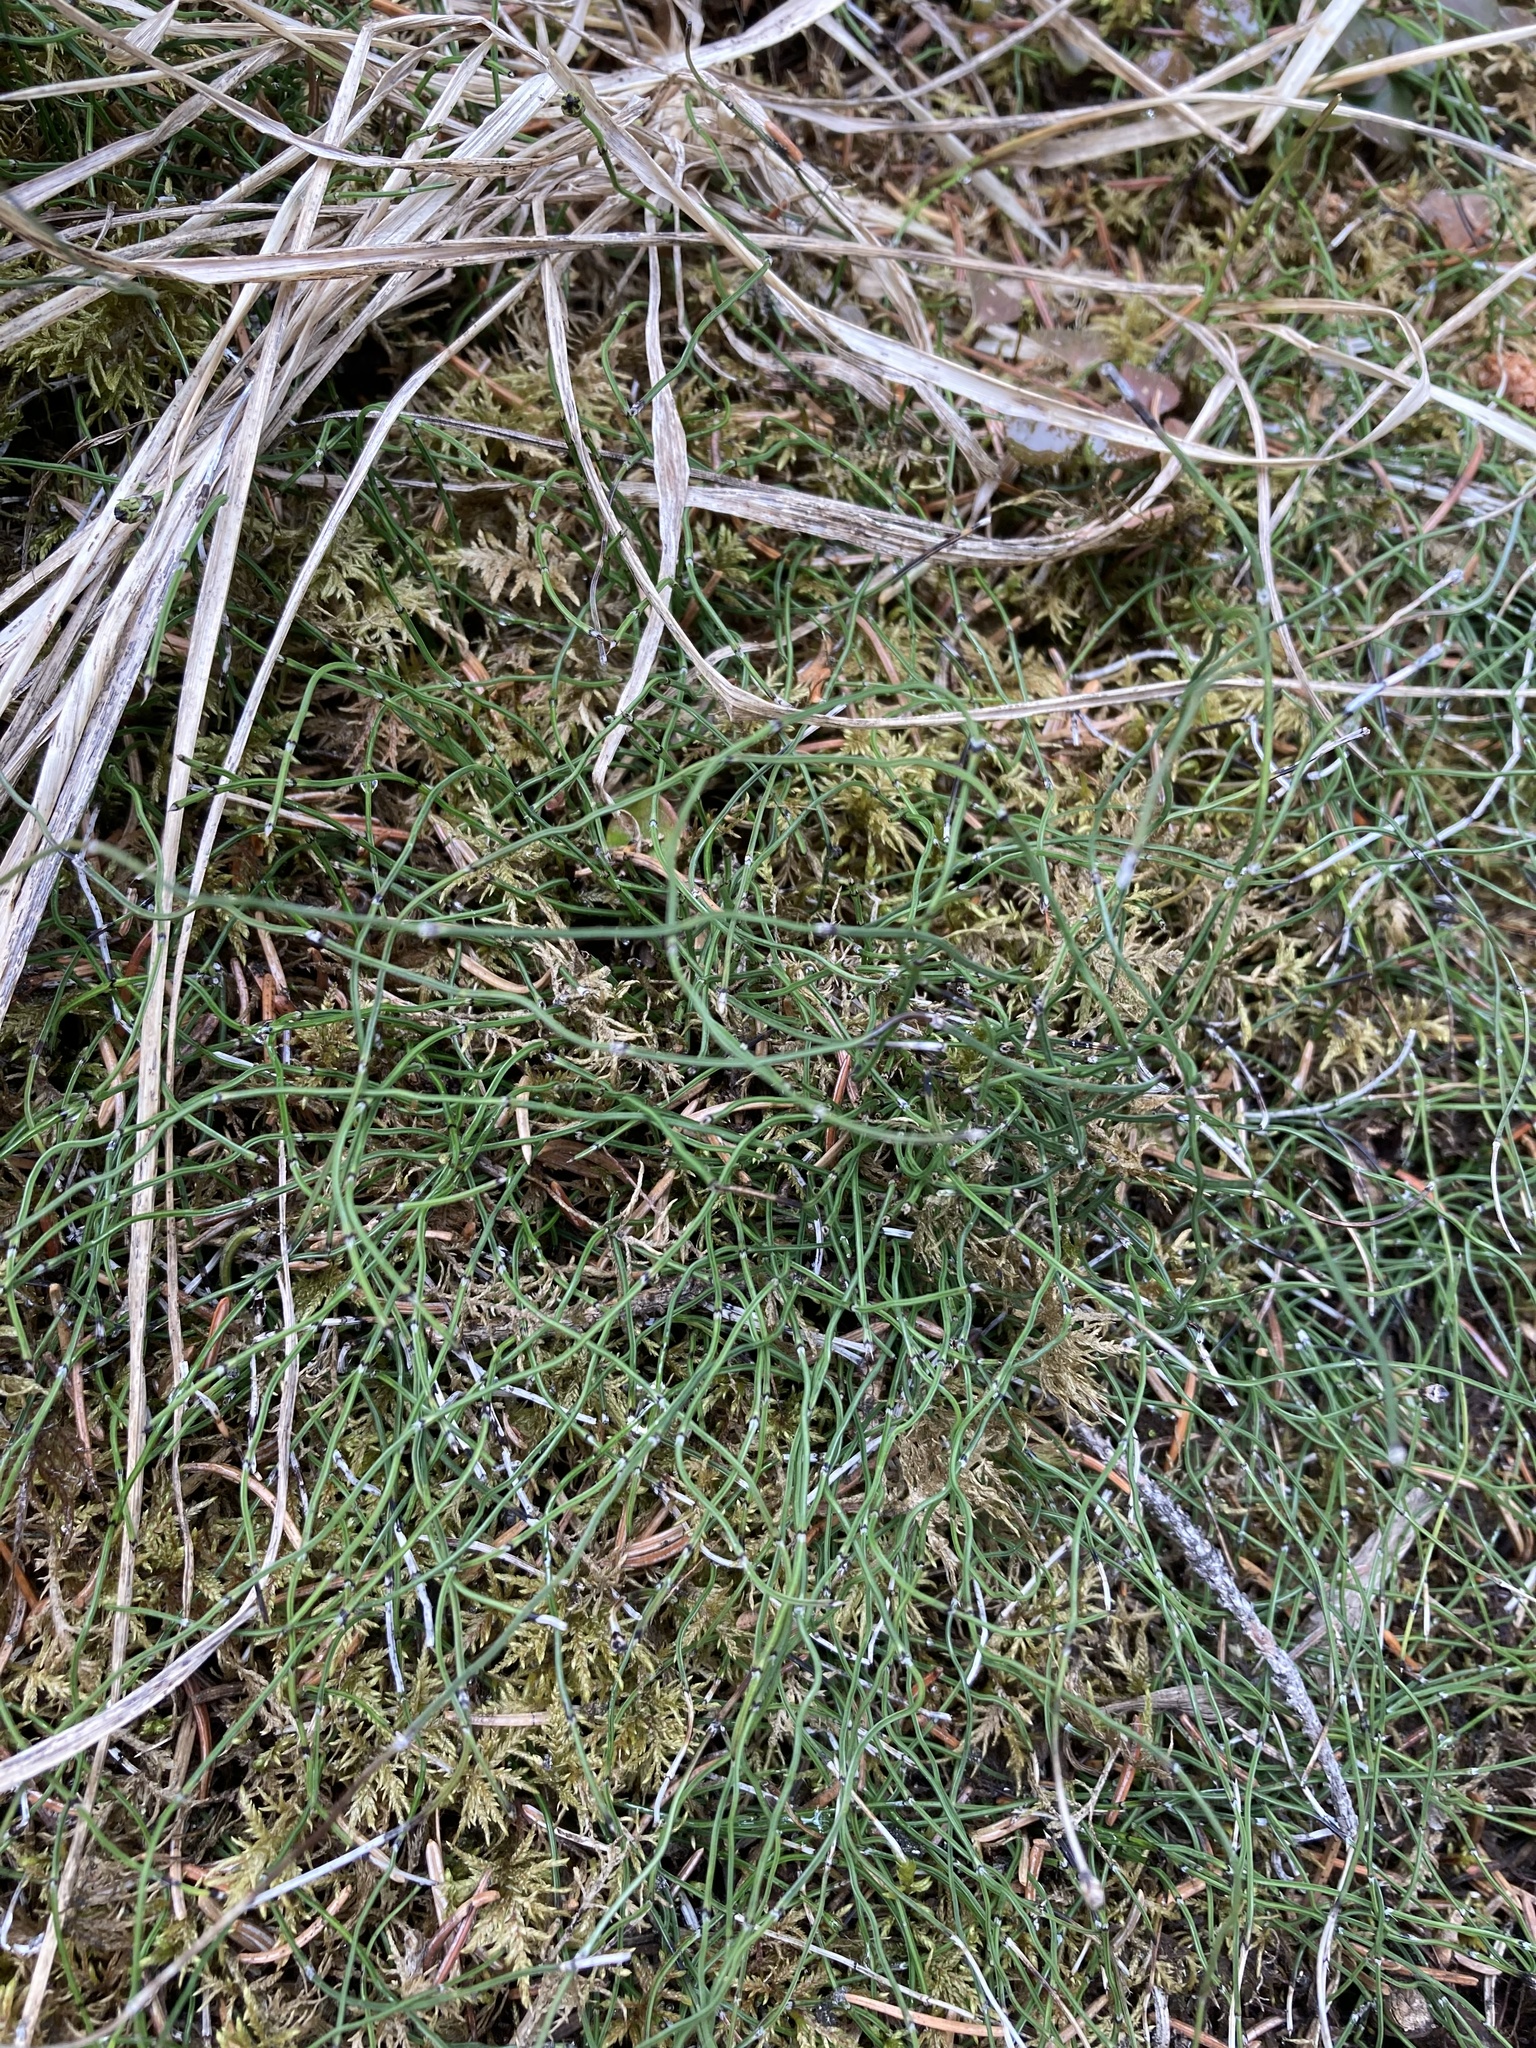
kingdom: Plantae
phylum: Tracheophyta
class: Polypodiopsida
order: Equisetales
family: Equisetaceae
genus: Equisetum
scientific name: Equisetum scirpoides
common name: Delicate horsetail
